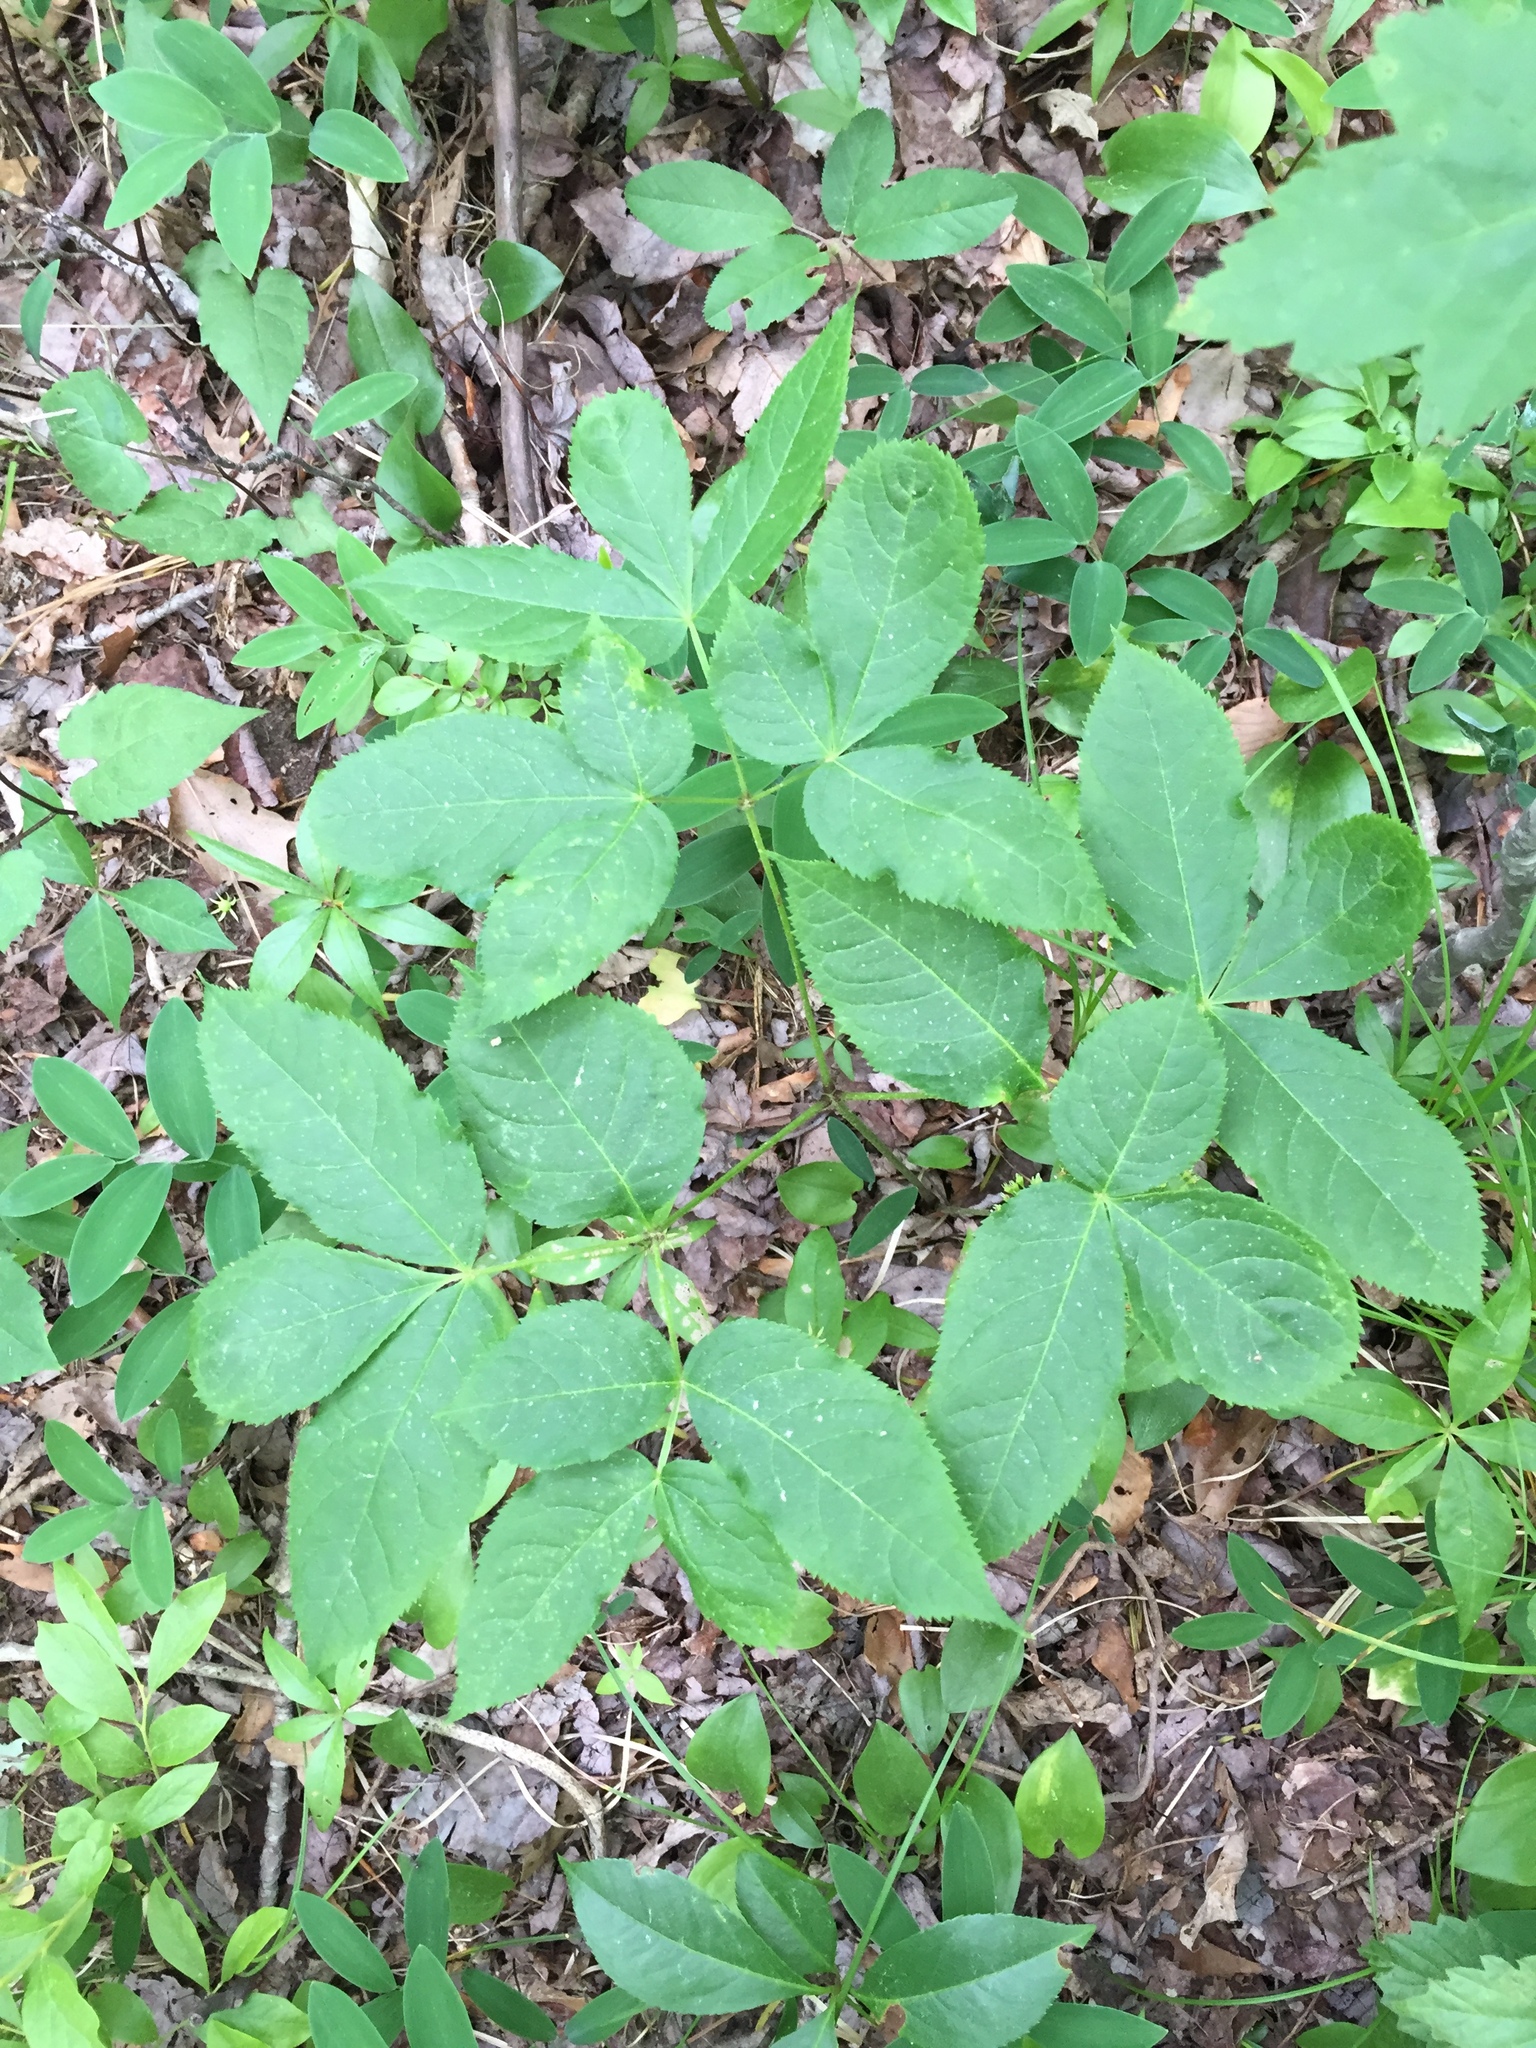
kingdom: Plantae
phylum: Tracheophyta
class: Magnoliopsida
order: Apiales
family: Araliaceae
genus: Aralia
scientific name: Aralia nudicaulis
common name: Wild sarsaparilla
